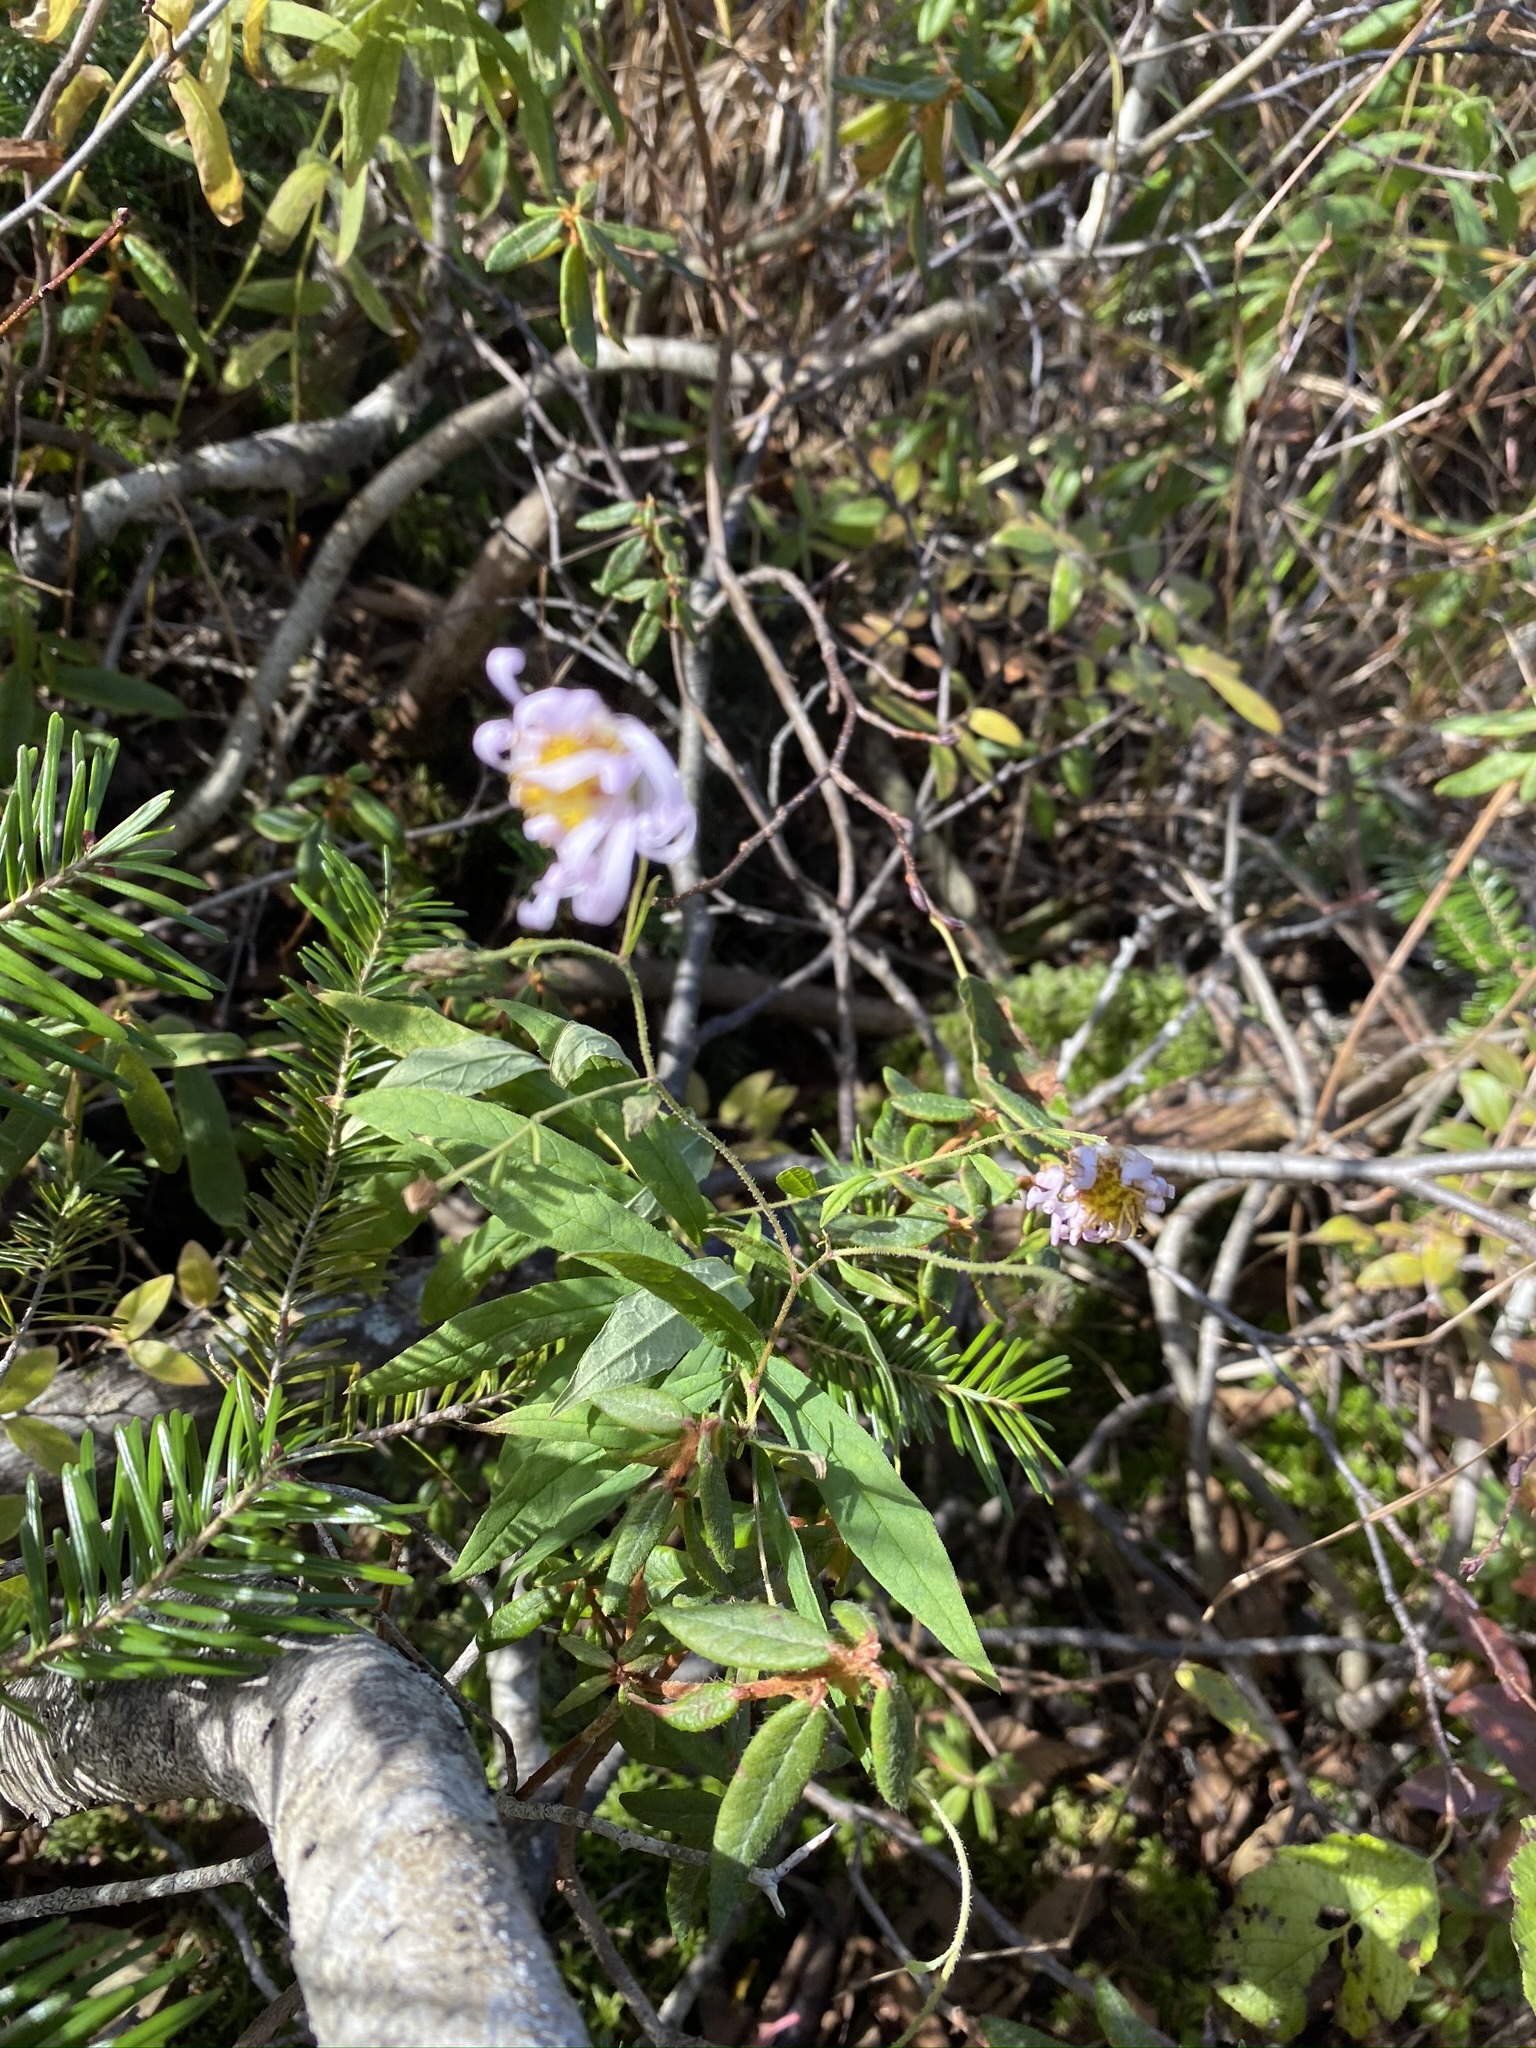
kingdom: Plantae
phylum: Tracheophyta
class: Magnoliopsida
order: Asterales
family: Asteraceae
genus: Oclemena
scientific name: Oclemena nemoralis
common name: Bog aster
